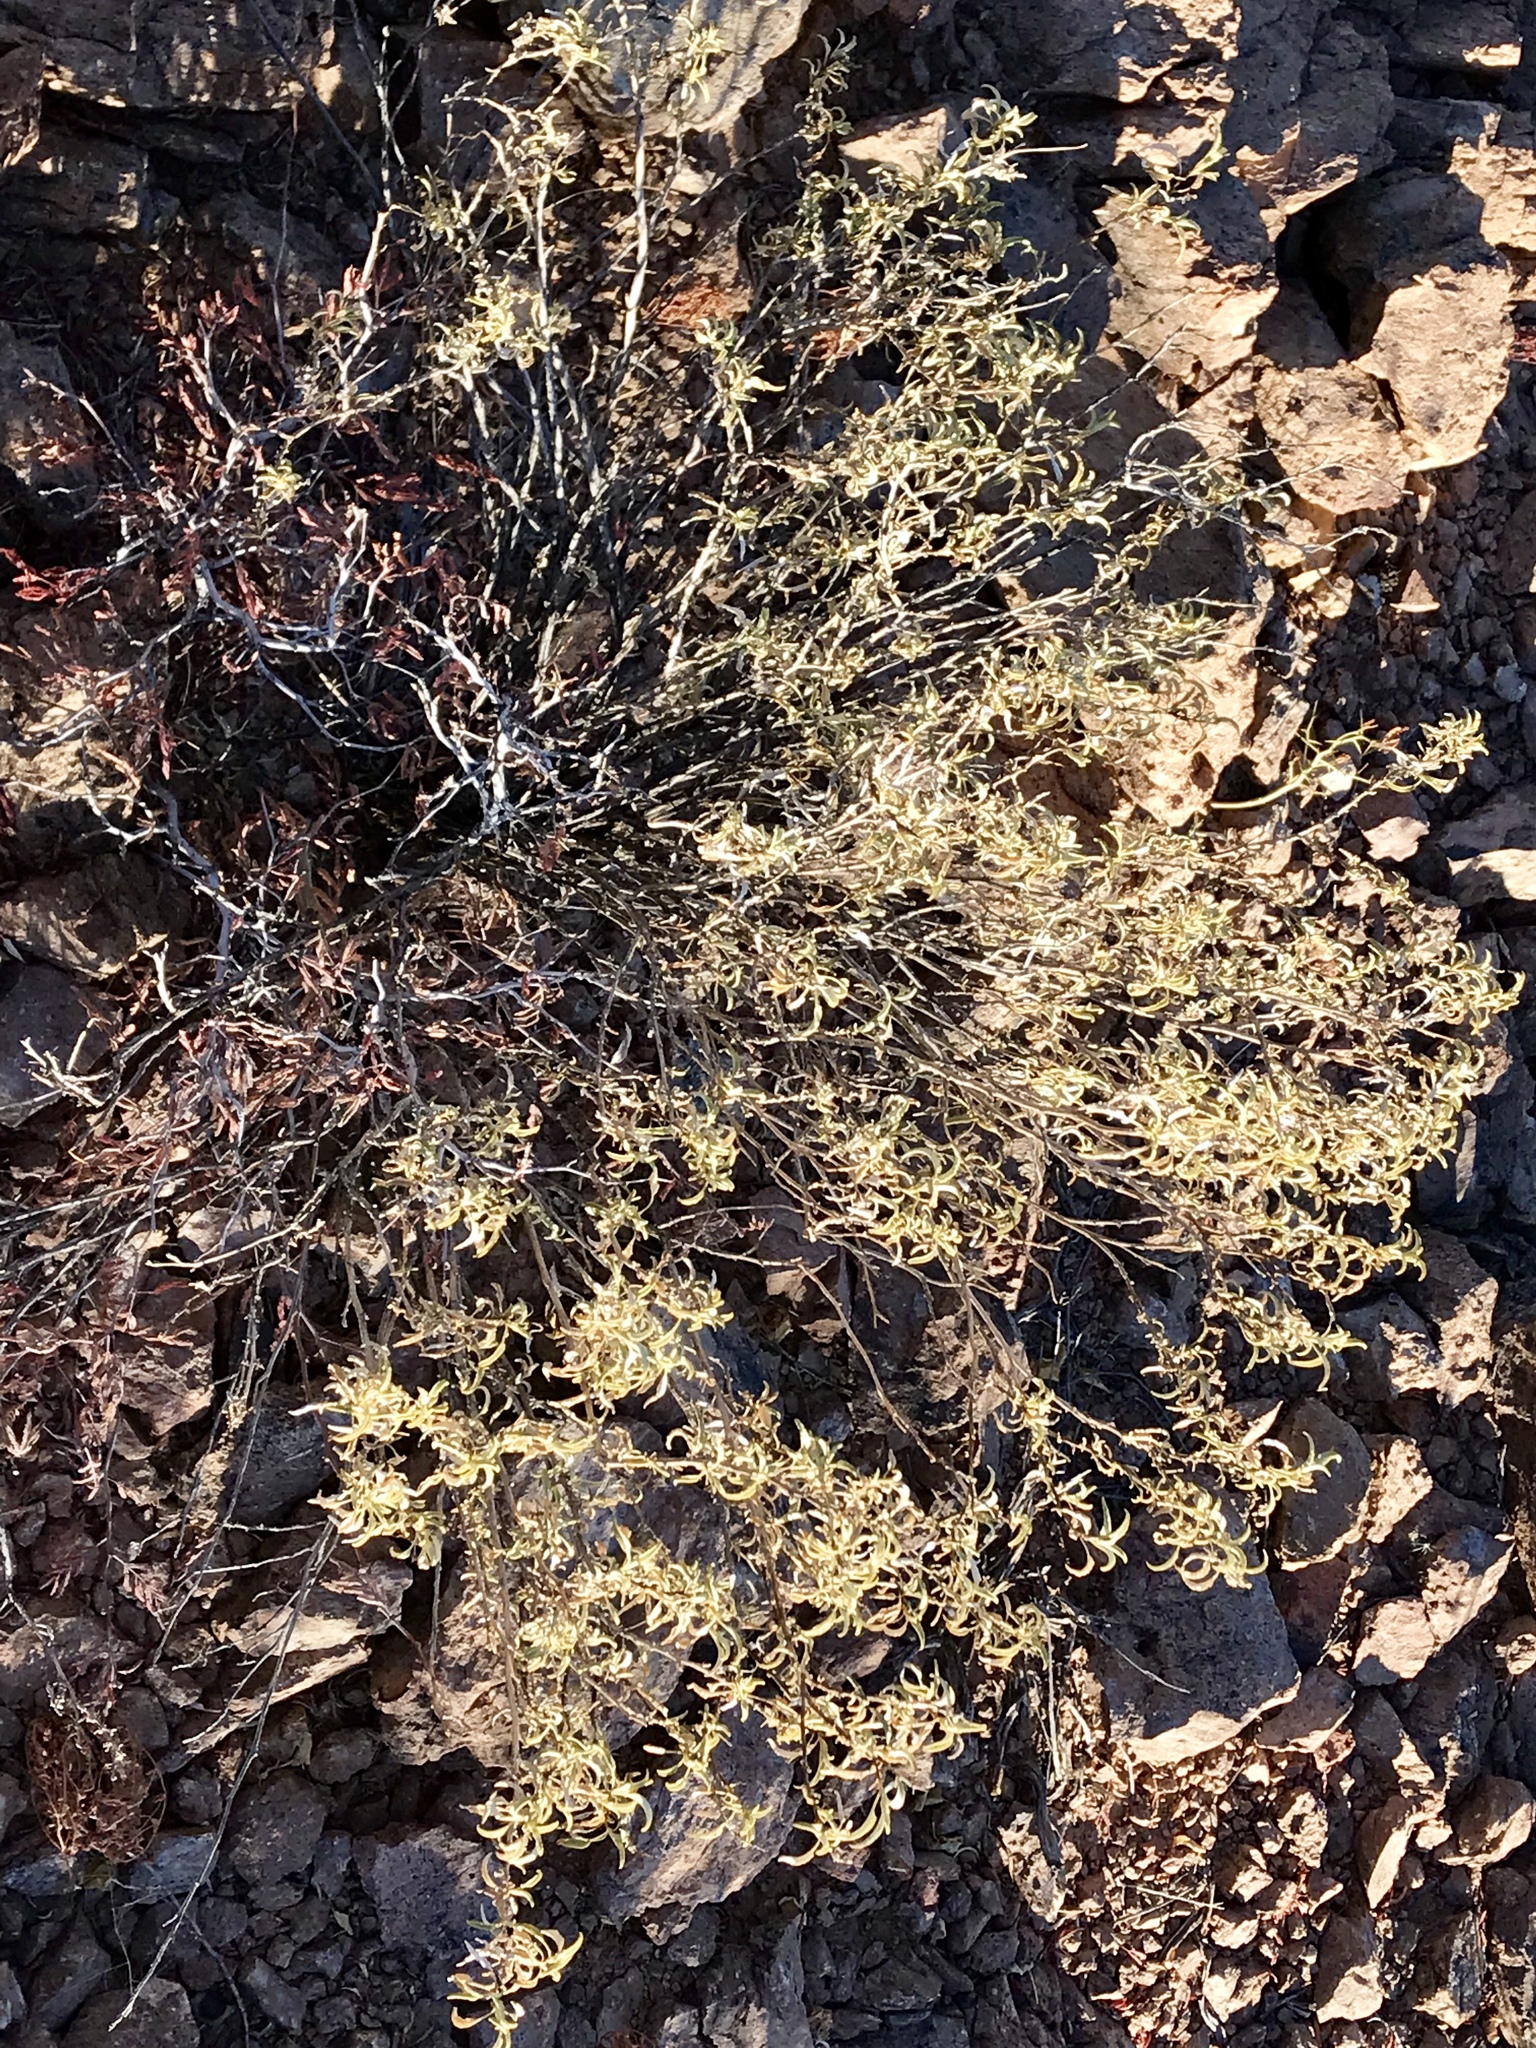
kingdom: Plantae
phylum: Tracheophyta
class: Magnoliopsida
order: Asterales
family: Asteraceae
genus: Ambrosia
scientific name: Ambrosia deltoidea
